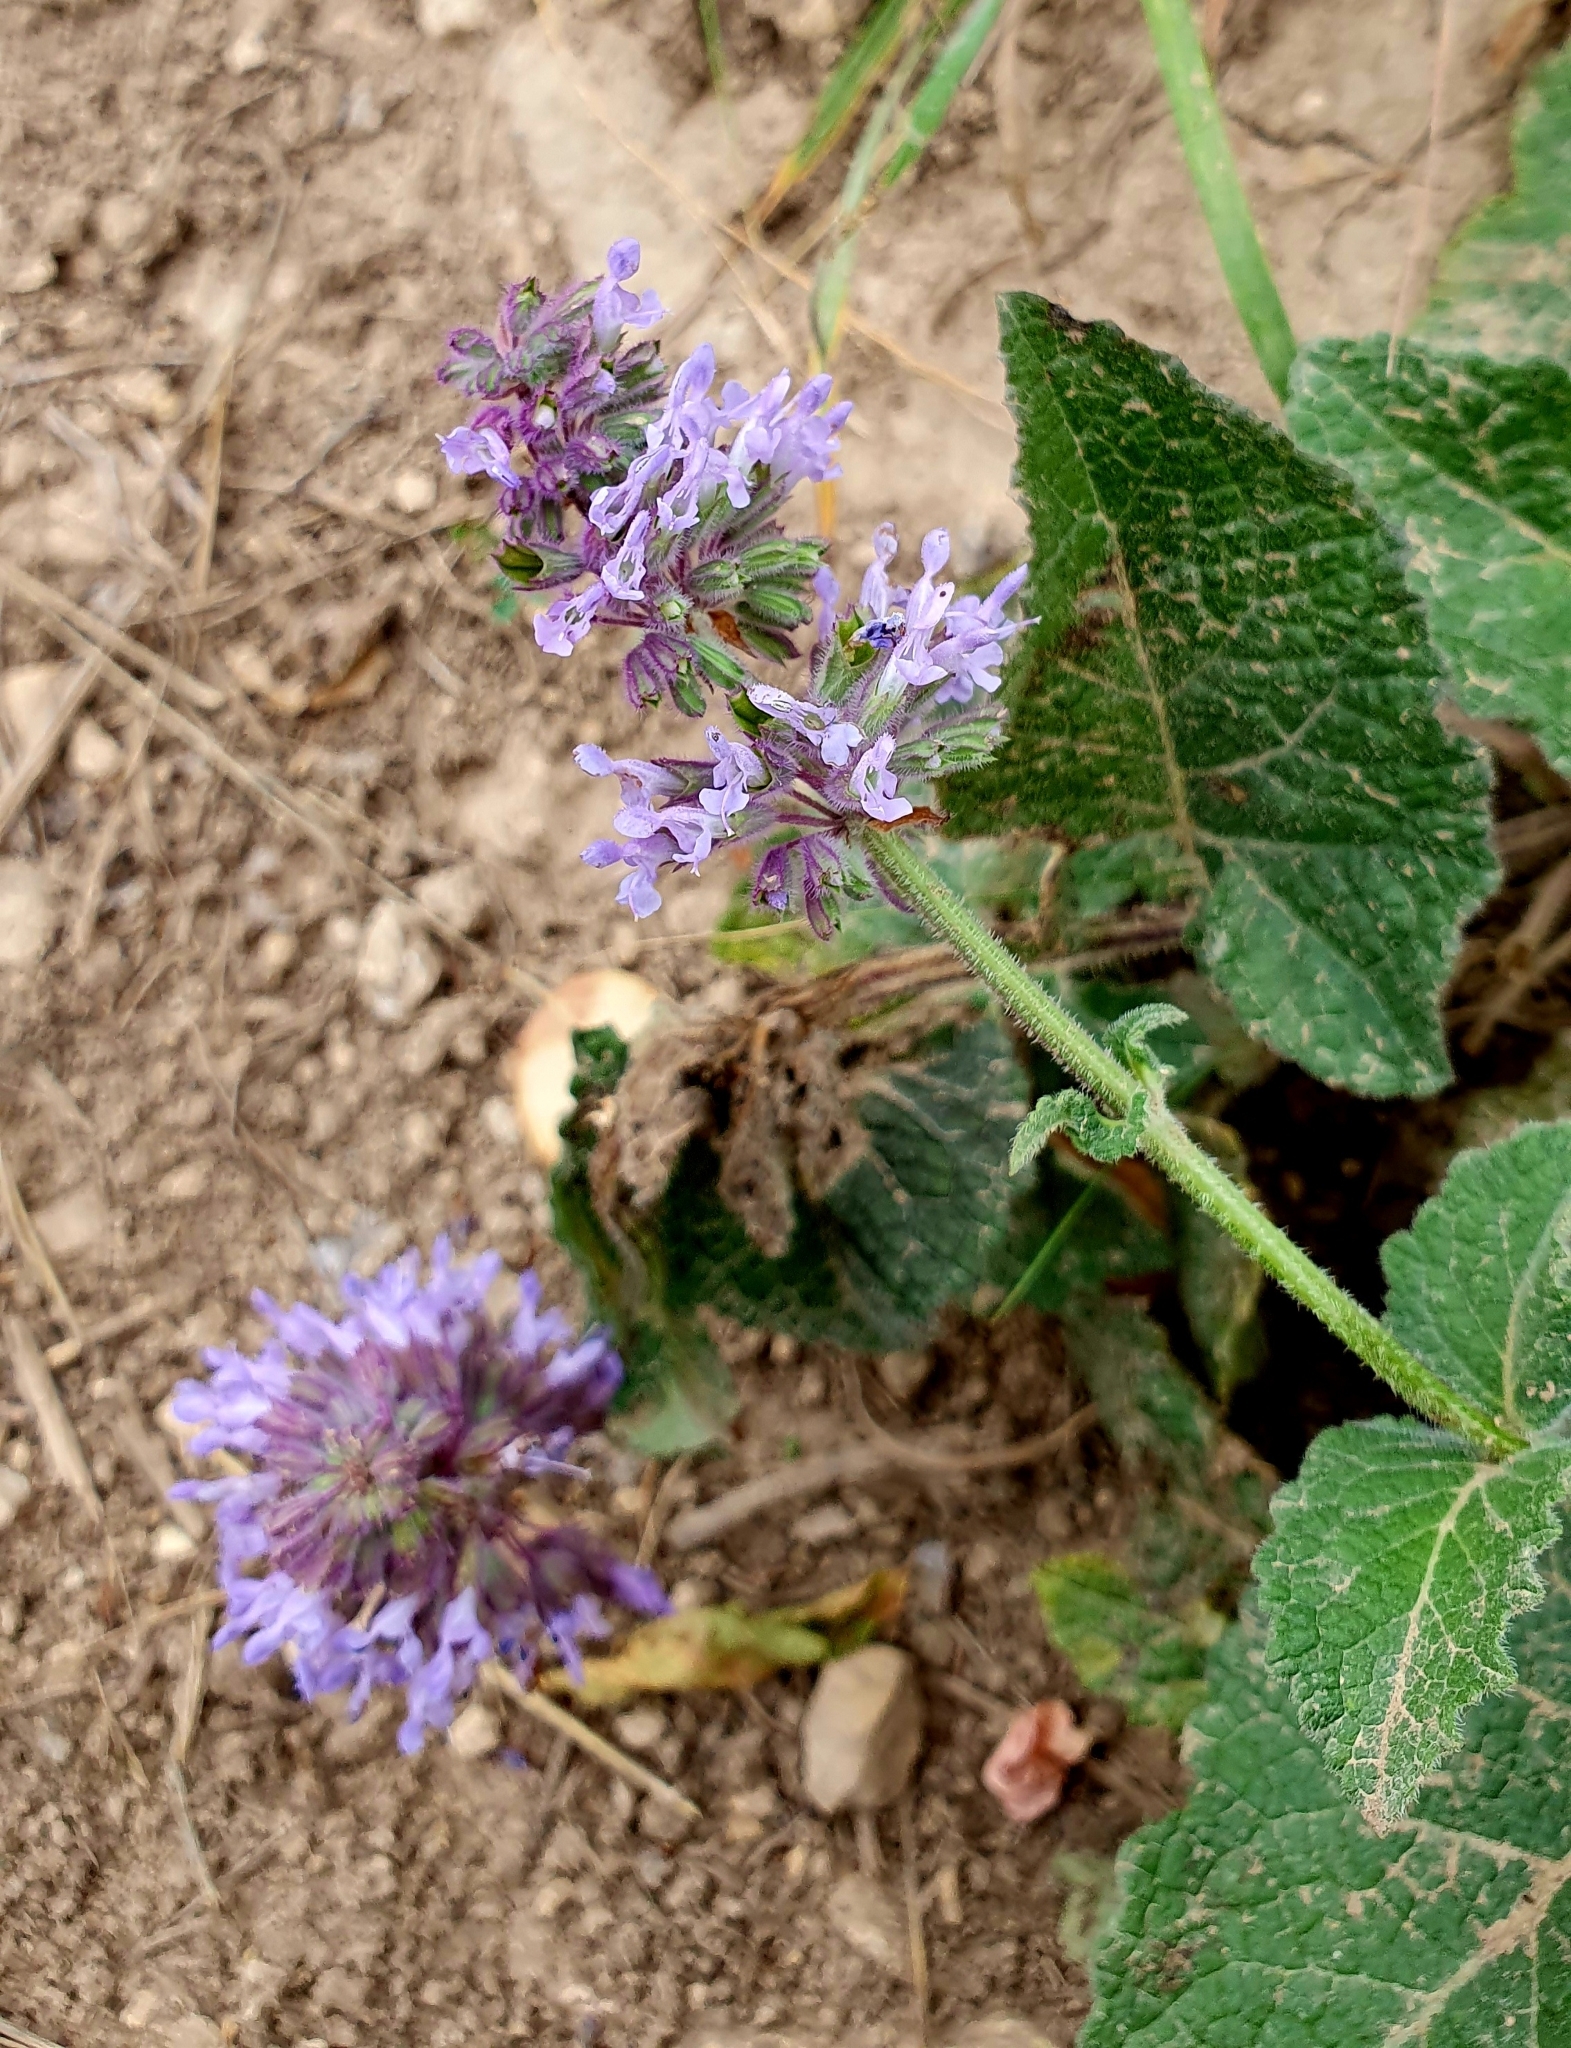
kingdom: Plantae
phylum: Tracheophyta
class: Magnoliopsida
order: Lamiales
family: Lamiaceae
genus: Salvia
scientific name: Salvia verticillata
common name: Whorled clary
